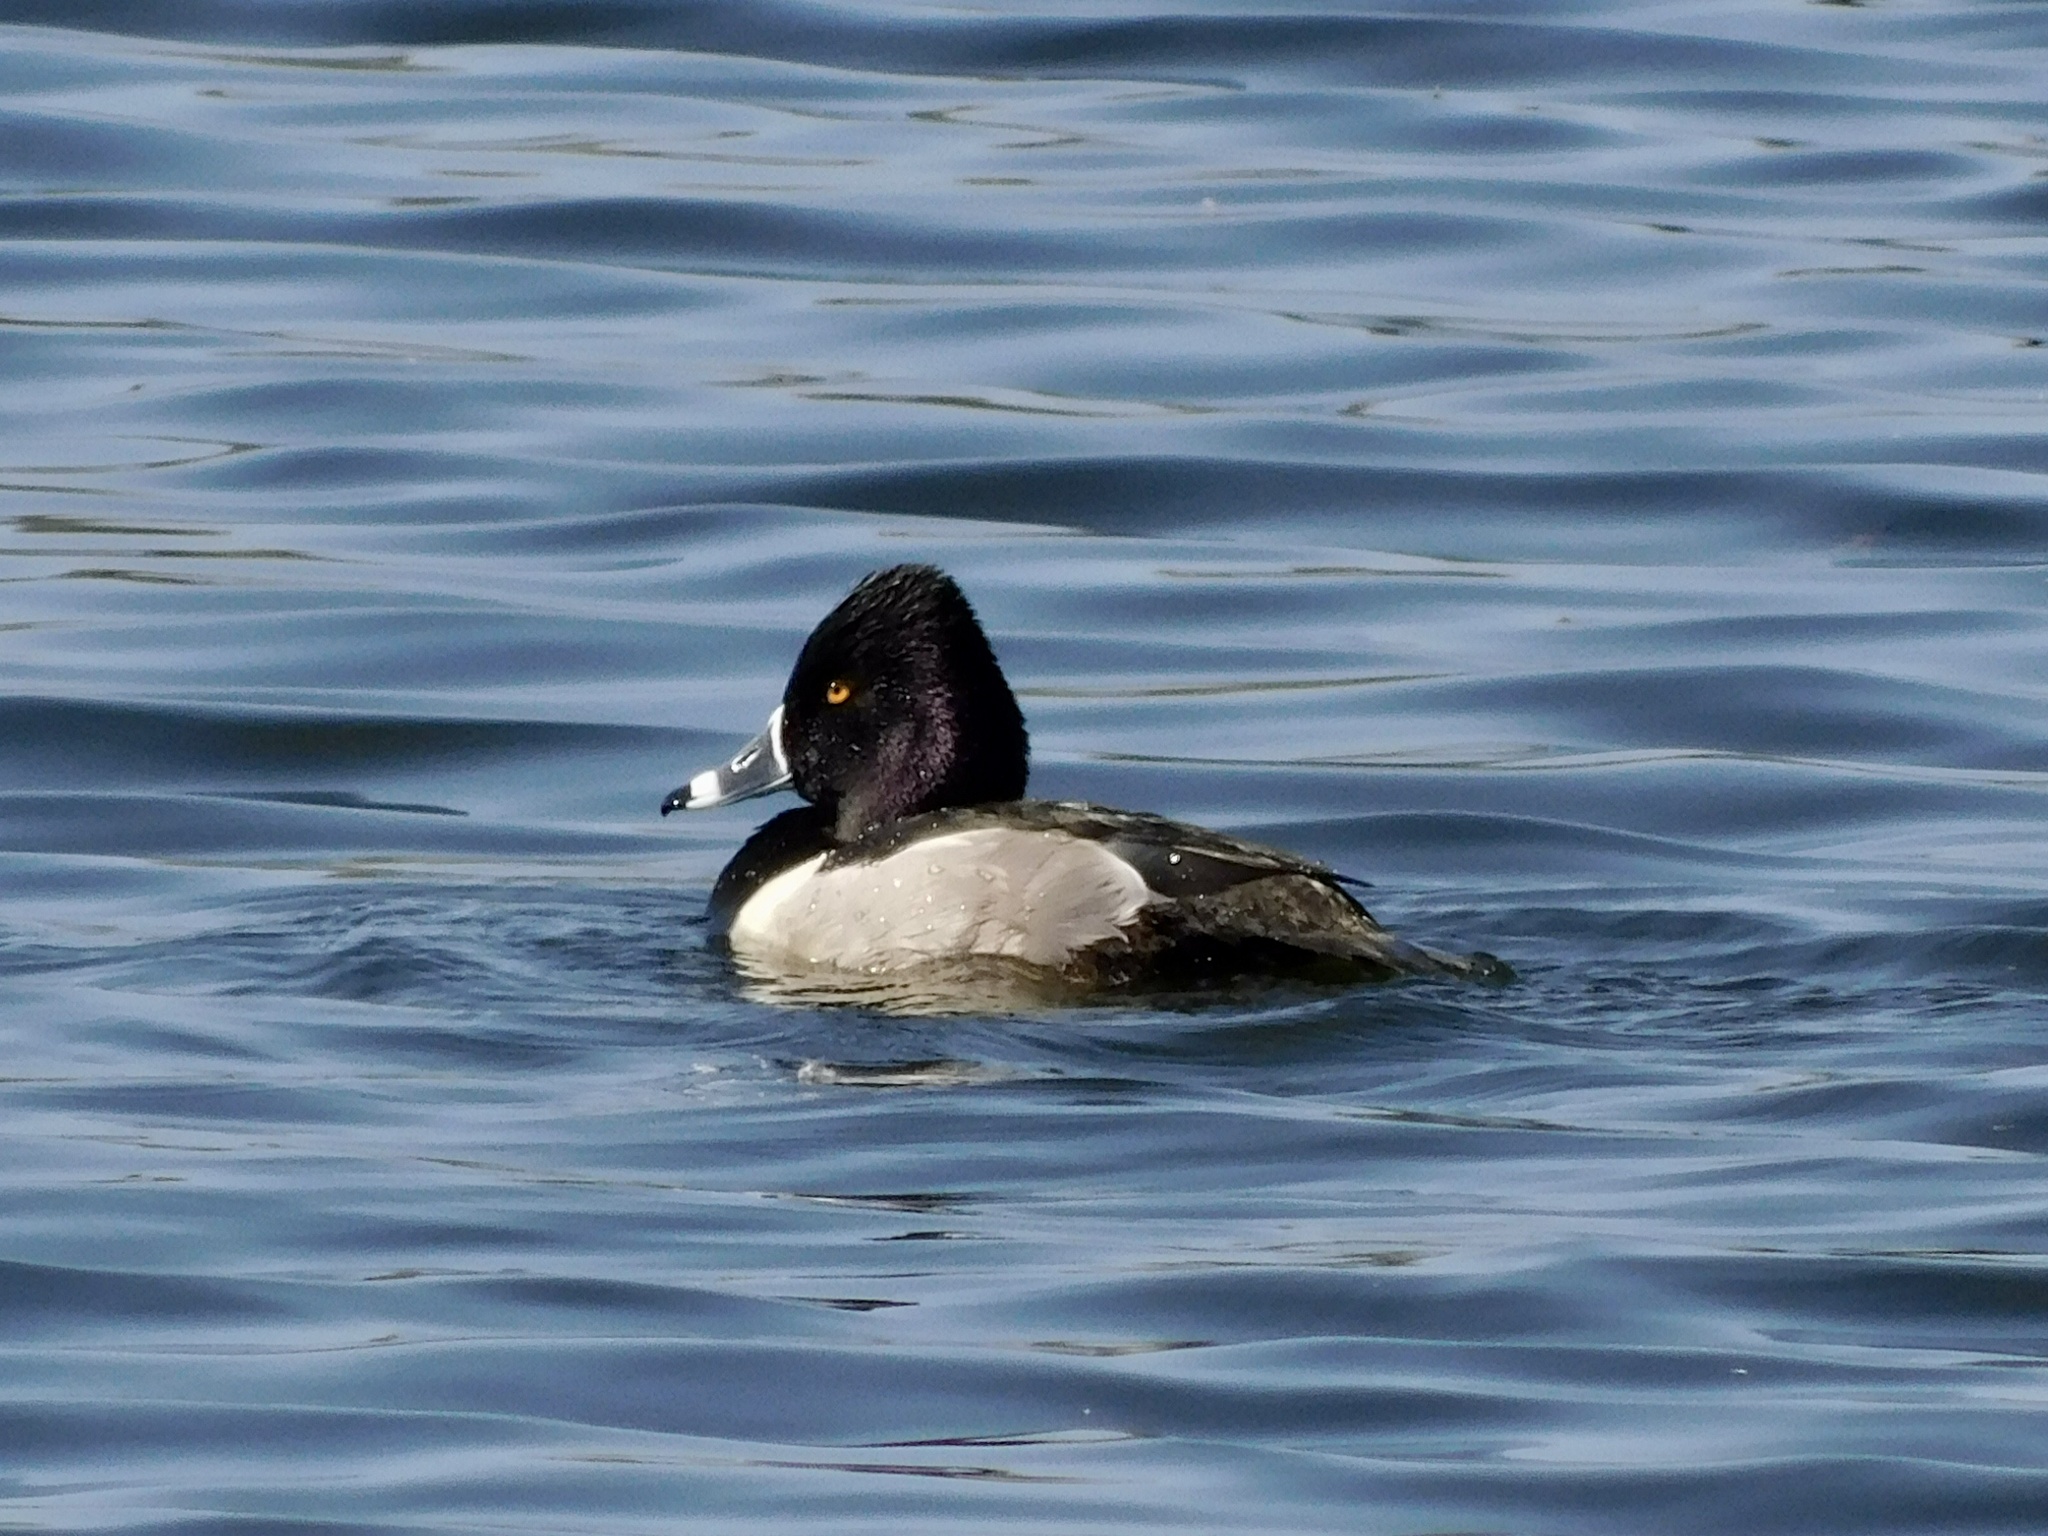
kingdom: Animalia
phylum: Chordata
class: Aves
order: Anseriformes
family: Anatidae
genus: Aythya
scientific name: Aythya collaris
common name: Ring-necked duck
